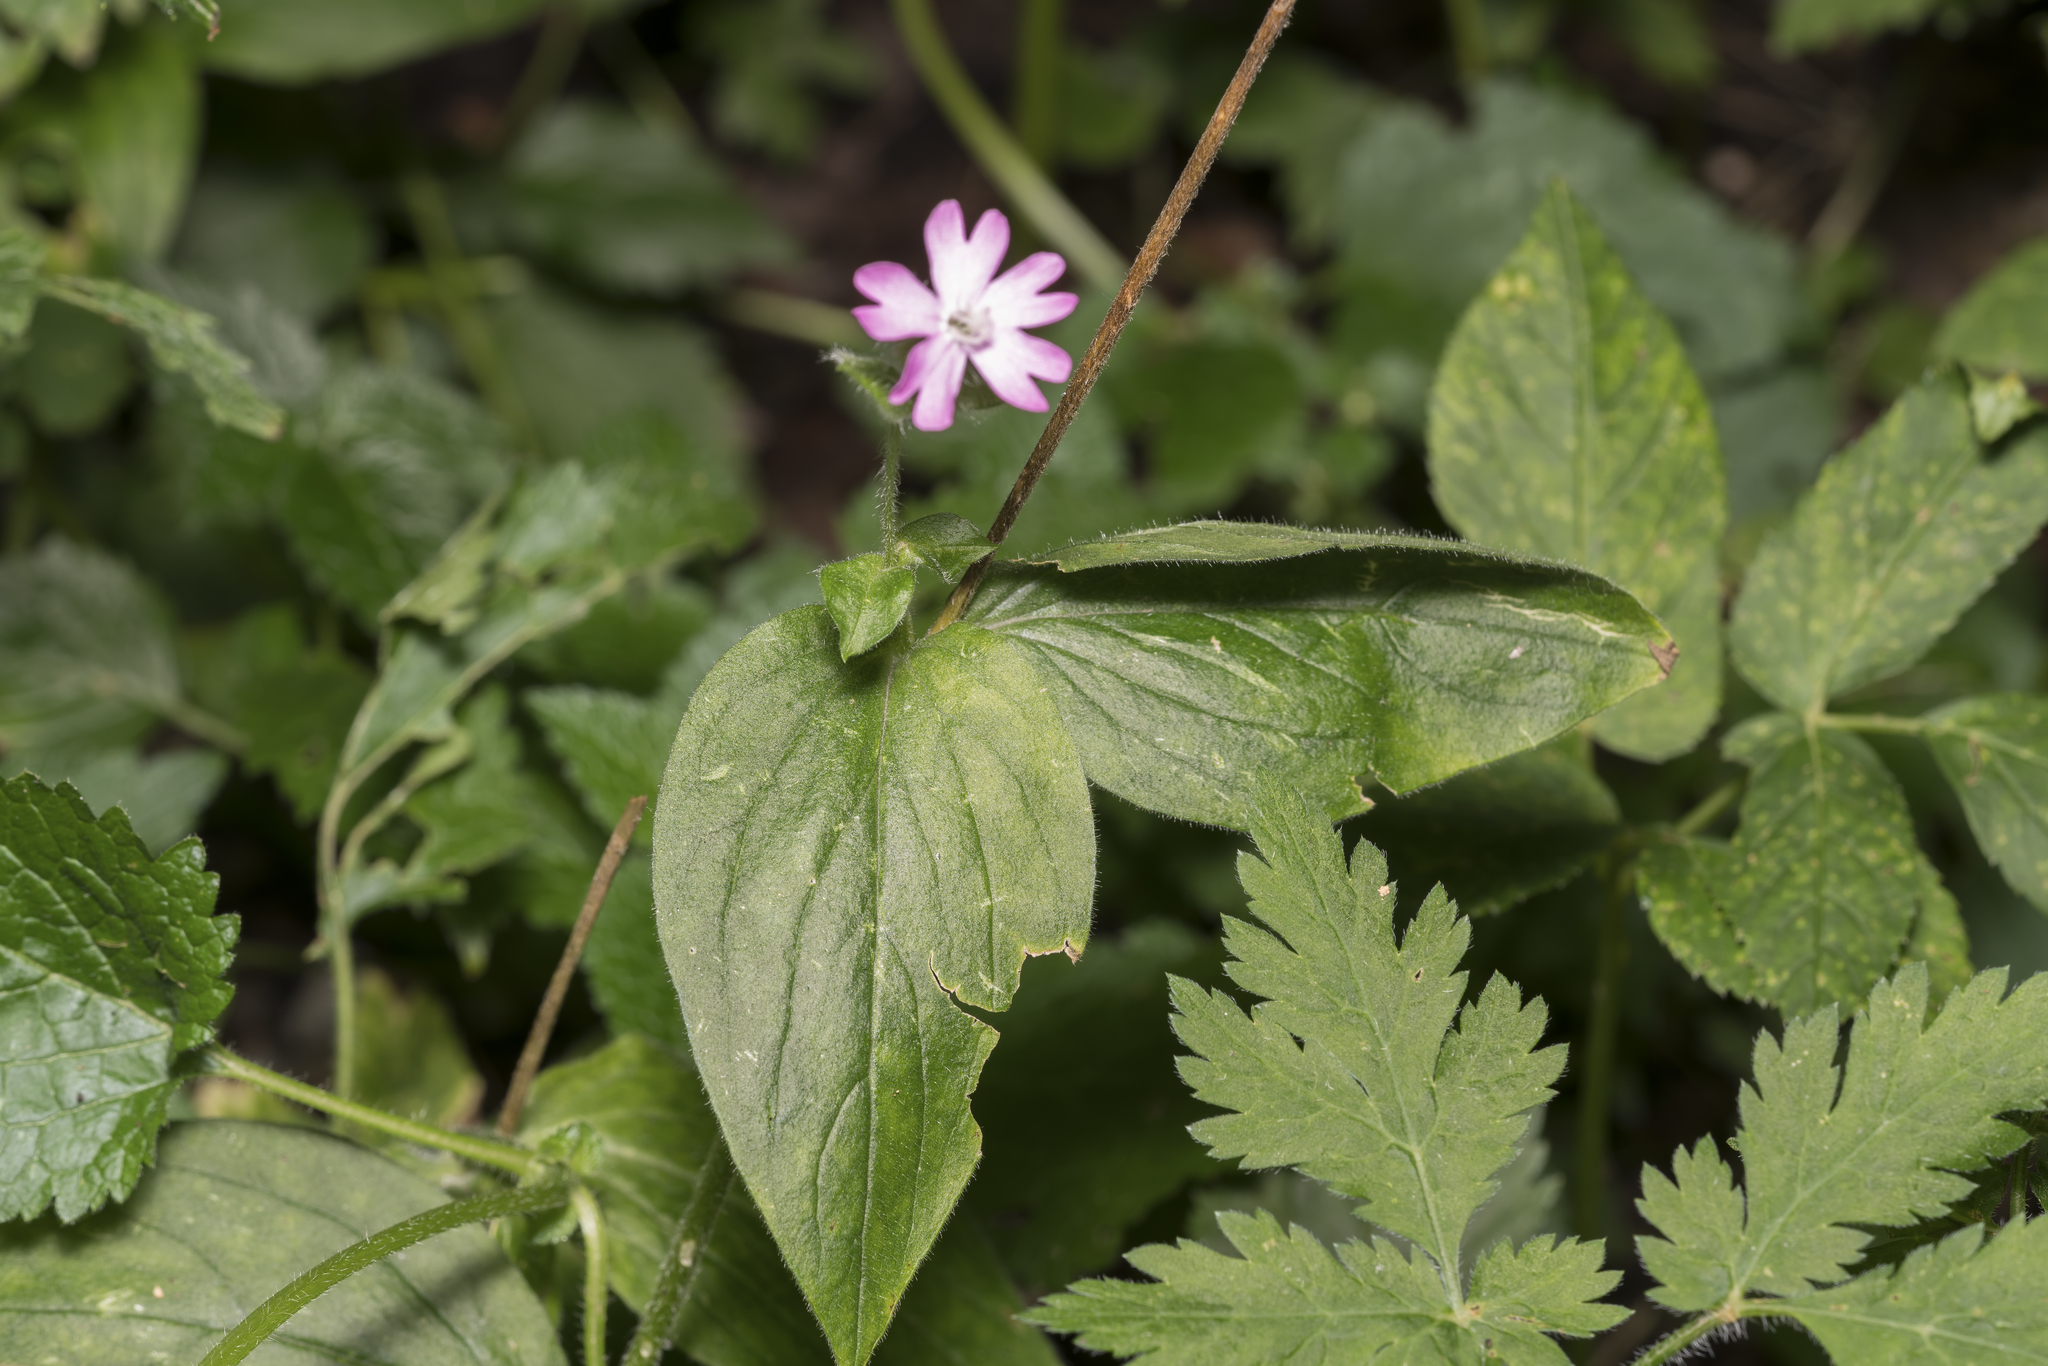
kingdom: Plantae
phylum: Tracheophyta
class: Magnoliopsida
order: Caryophyllales
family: Caryophyllaceae
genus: Silene
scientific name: Silene dioica
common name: Red campion
